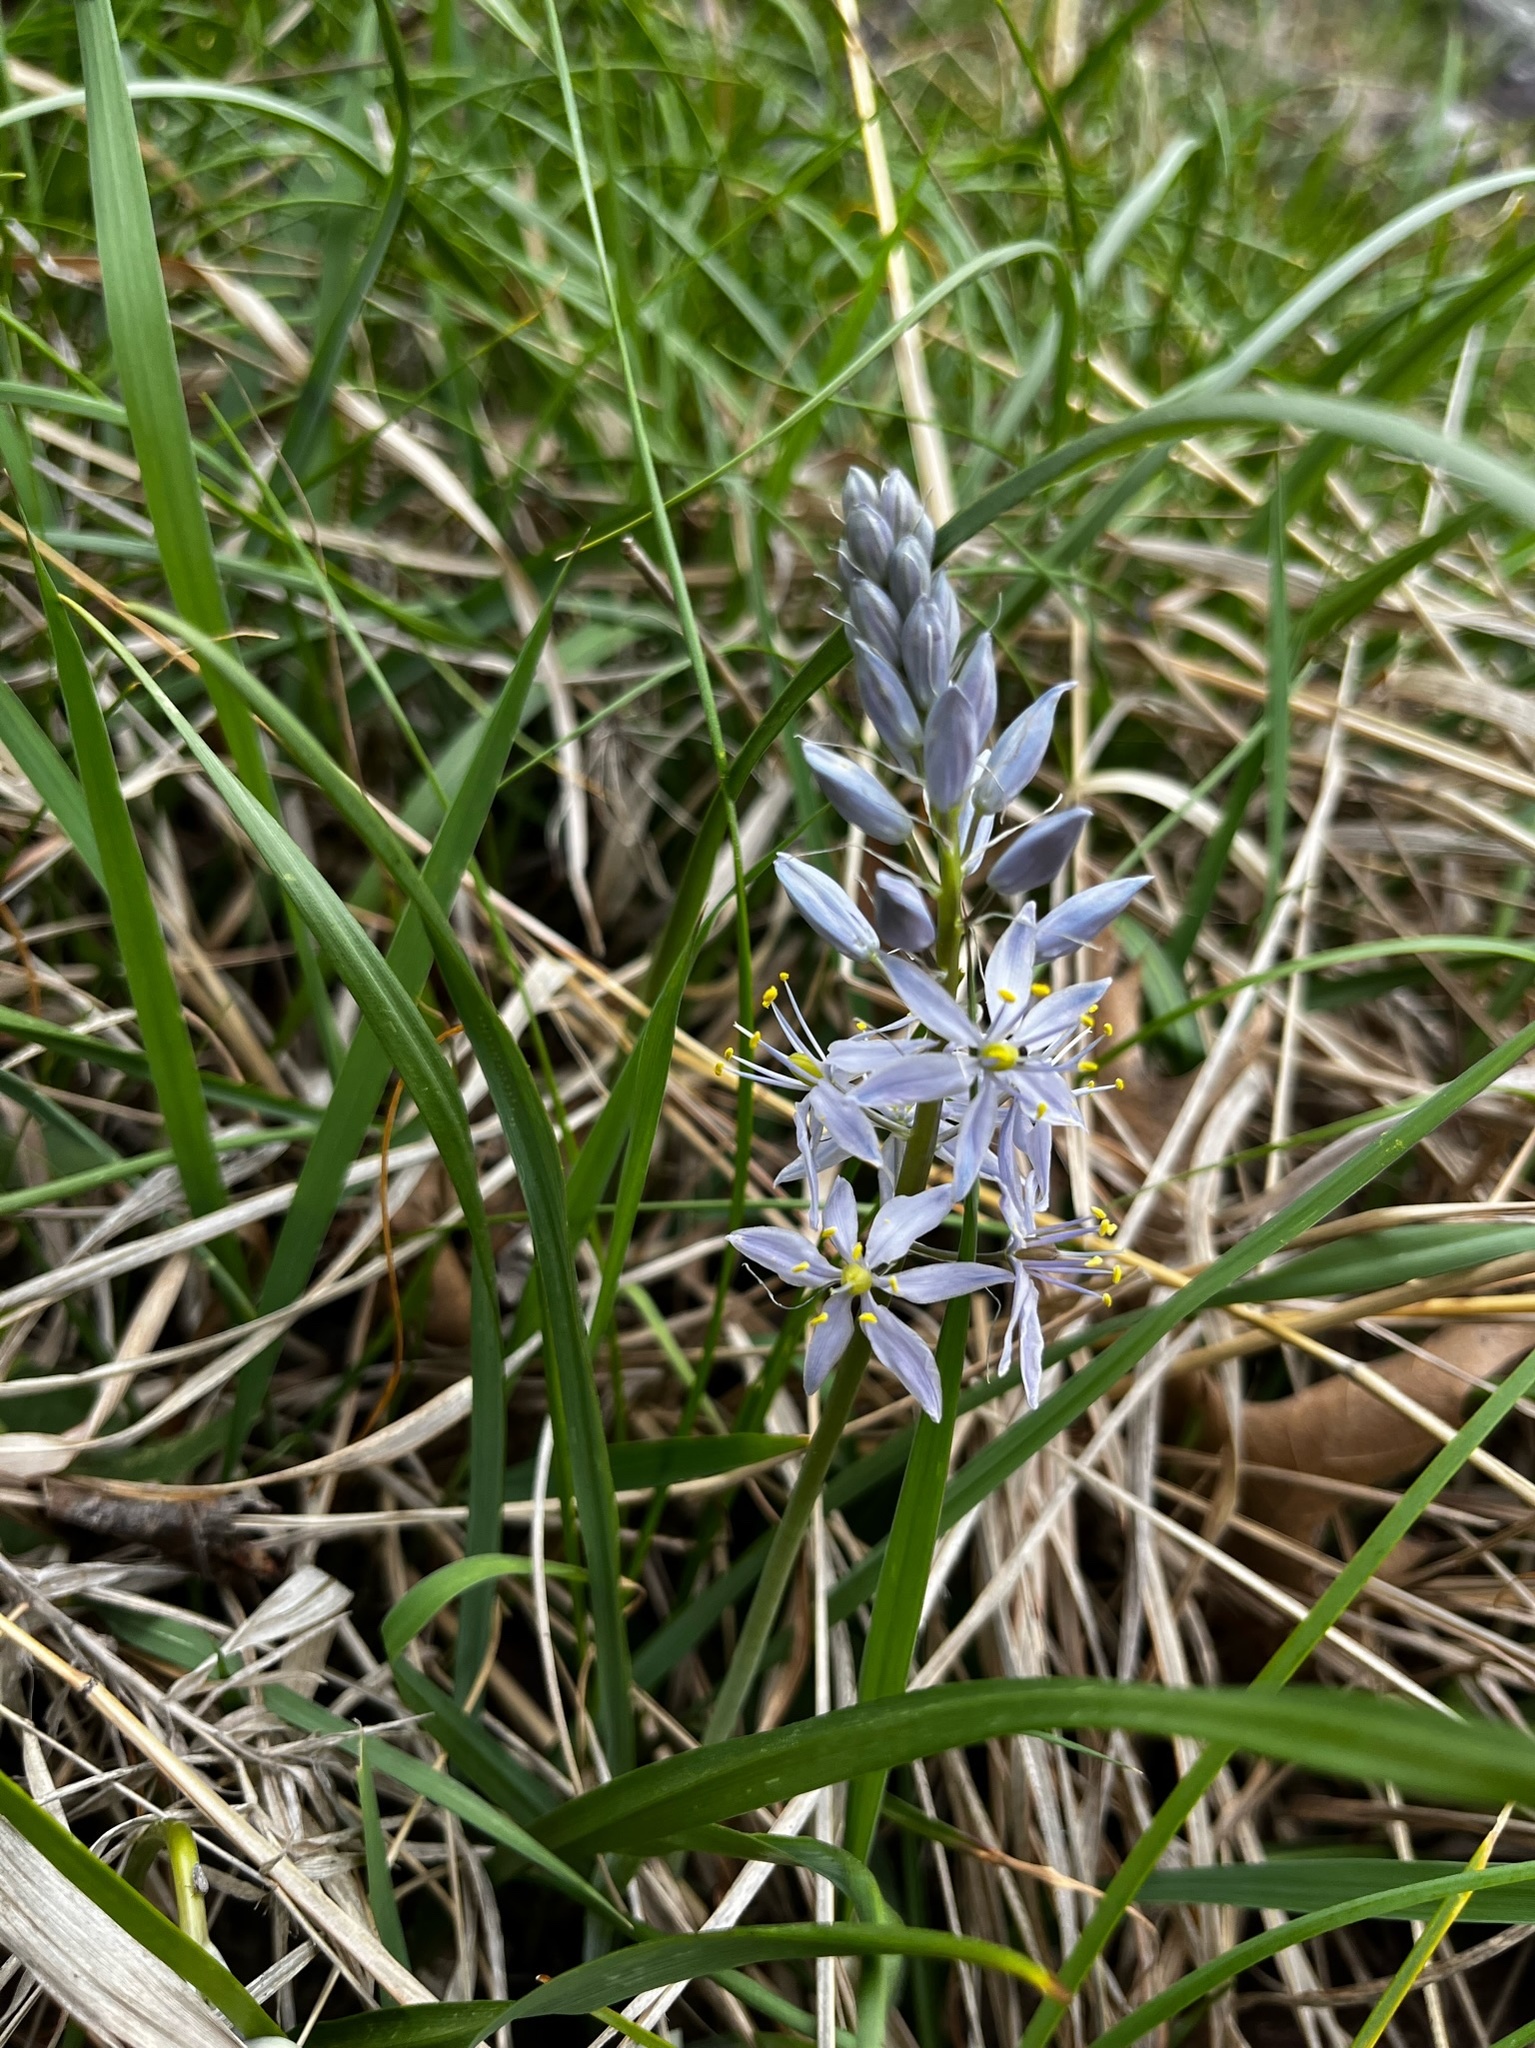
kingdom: Plantae
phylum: Tracheophyta
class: Liliopsida
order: Asparagales
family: Asparagaceae
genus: Camassia
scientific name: Camassia scilloides
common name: Wild hyacinth
